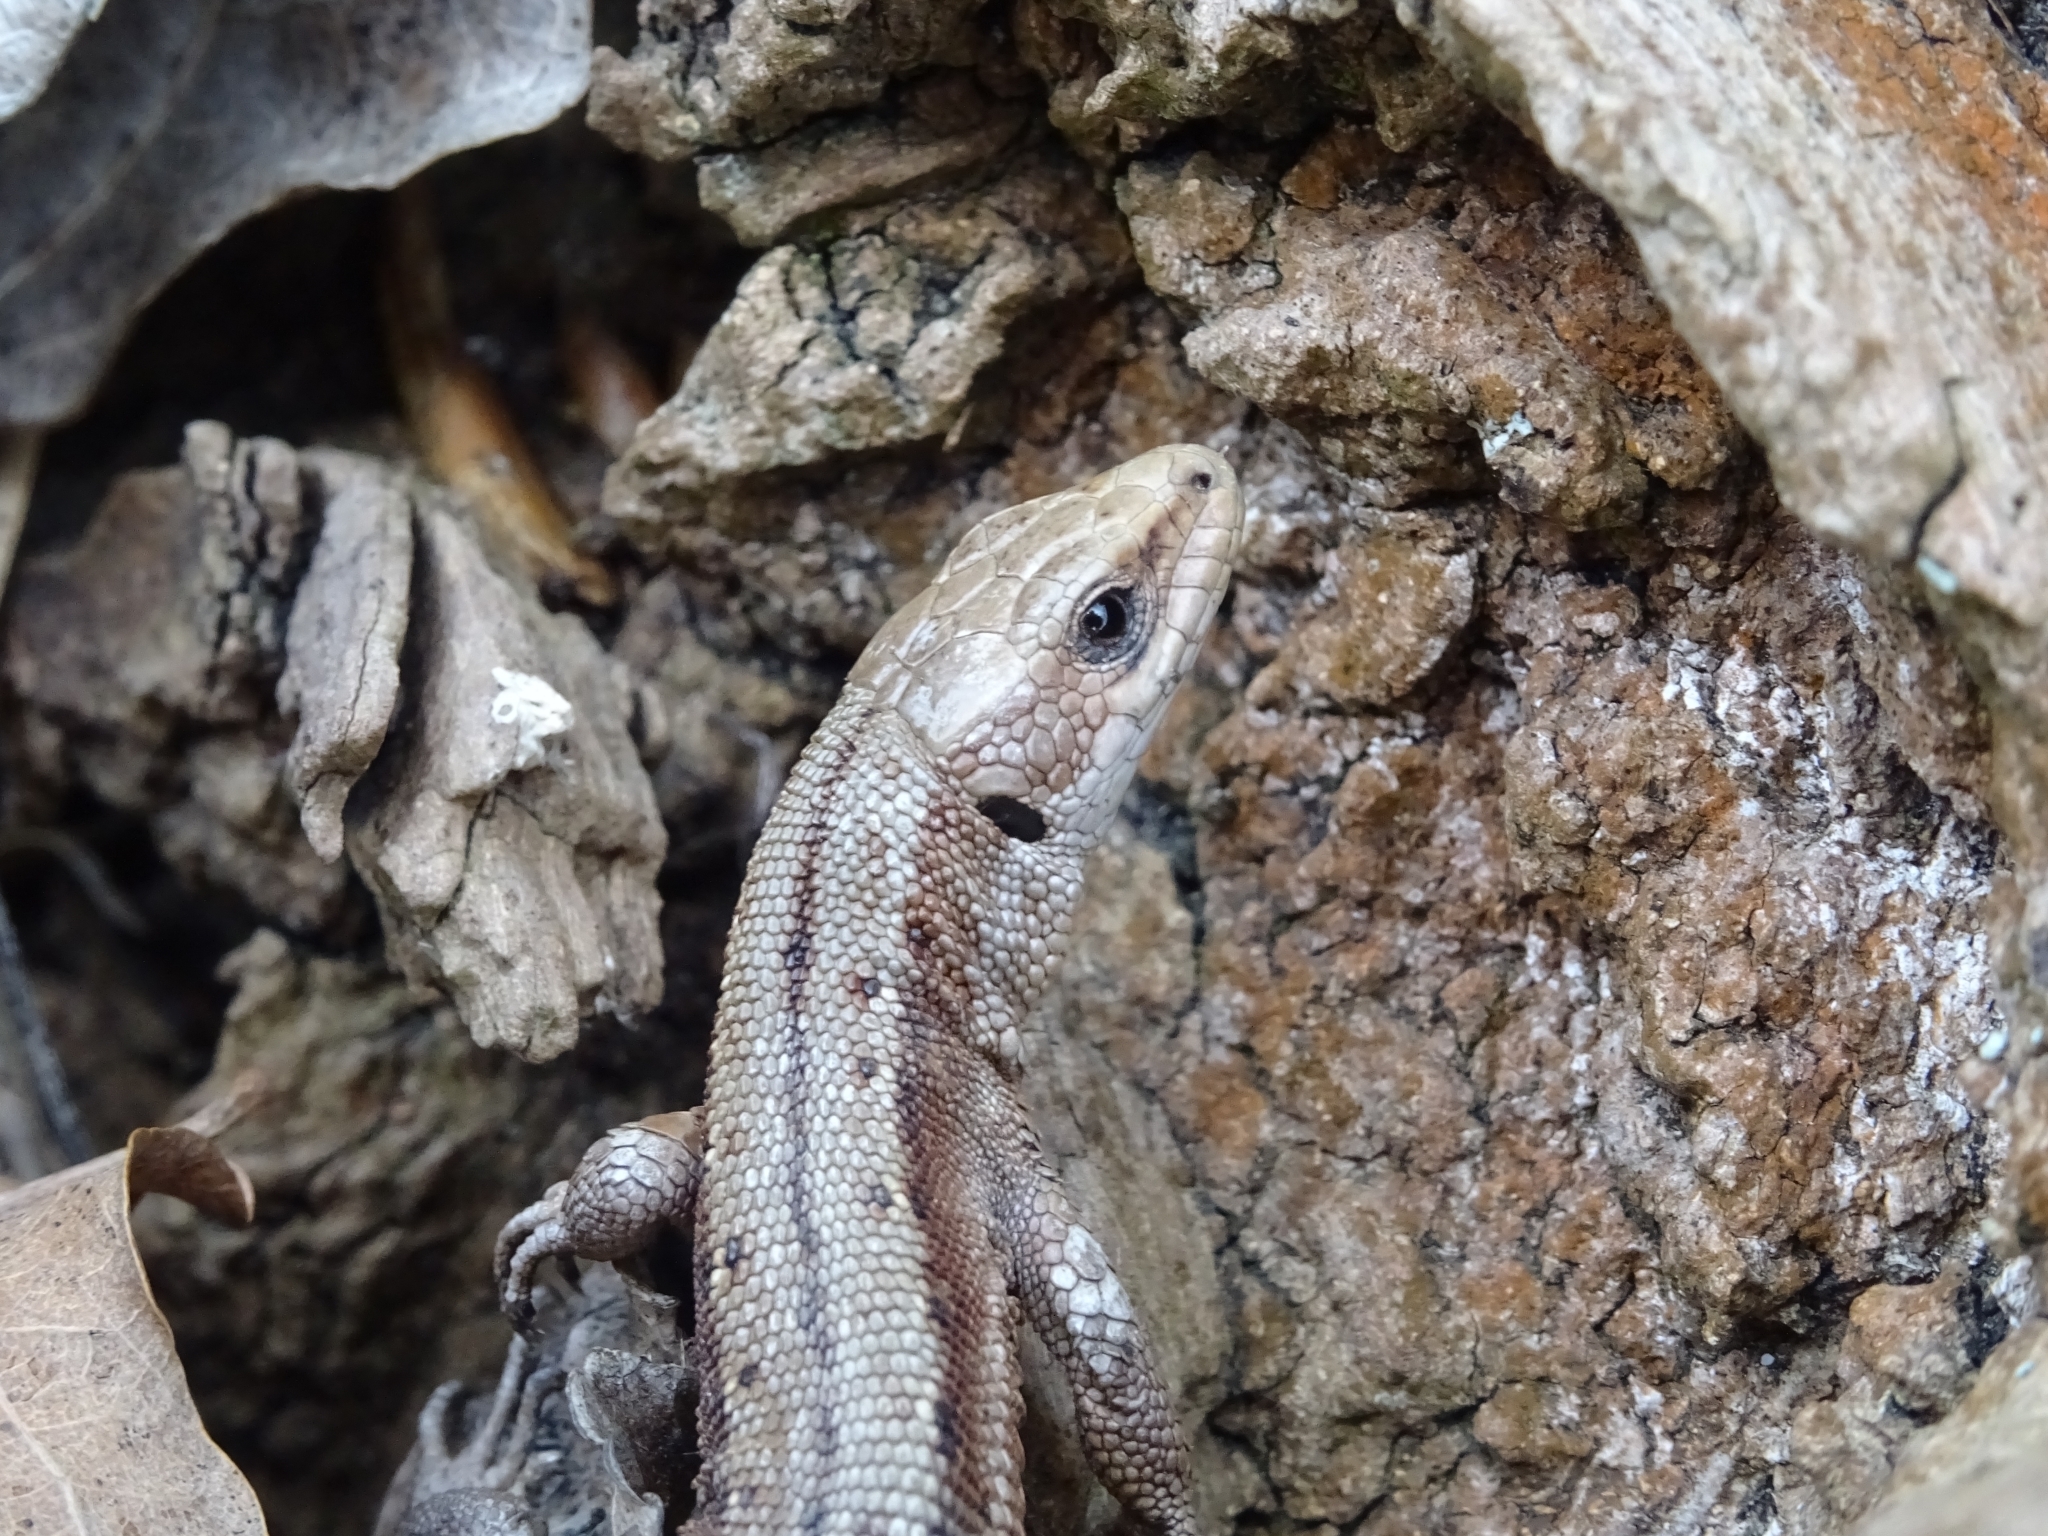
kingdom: Animalia
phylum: Chordata
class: Squamata
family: Lacertidae
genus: Zootoca
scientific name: Zootoca vivipara
